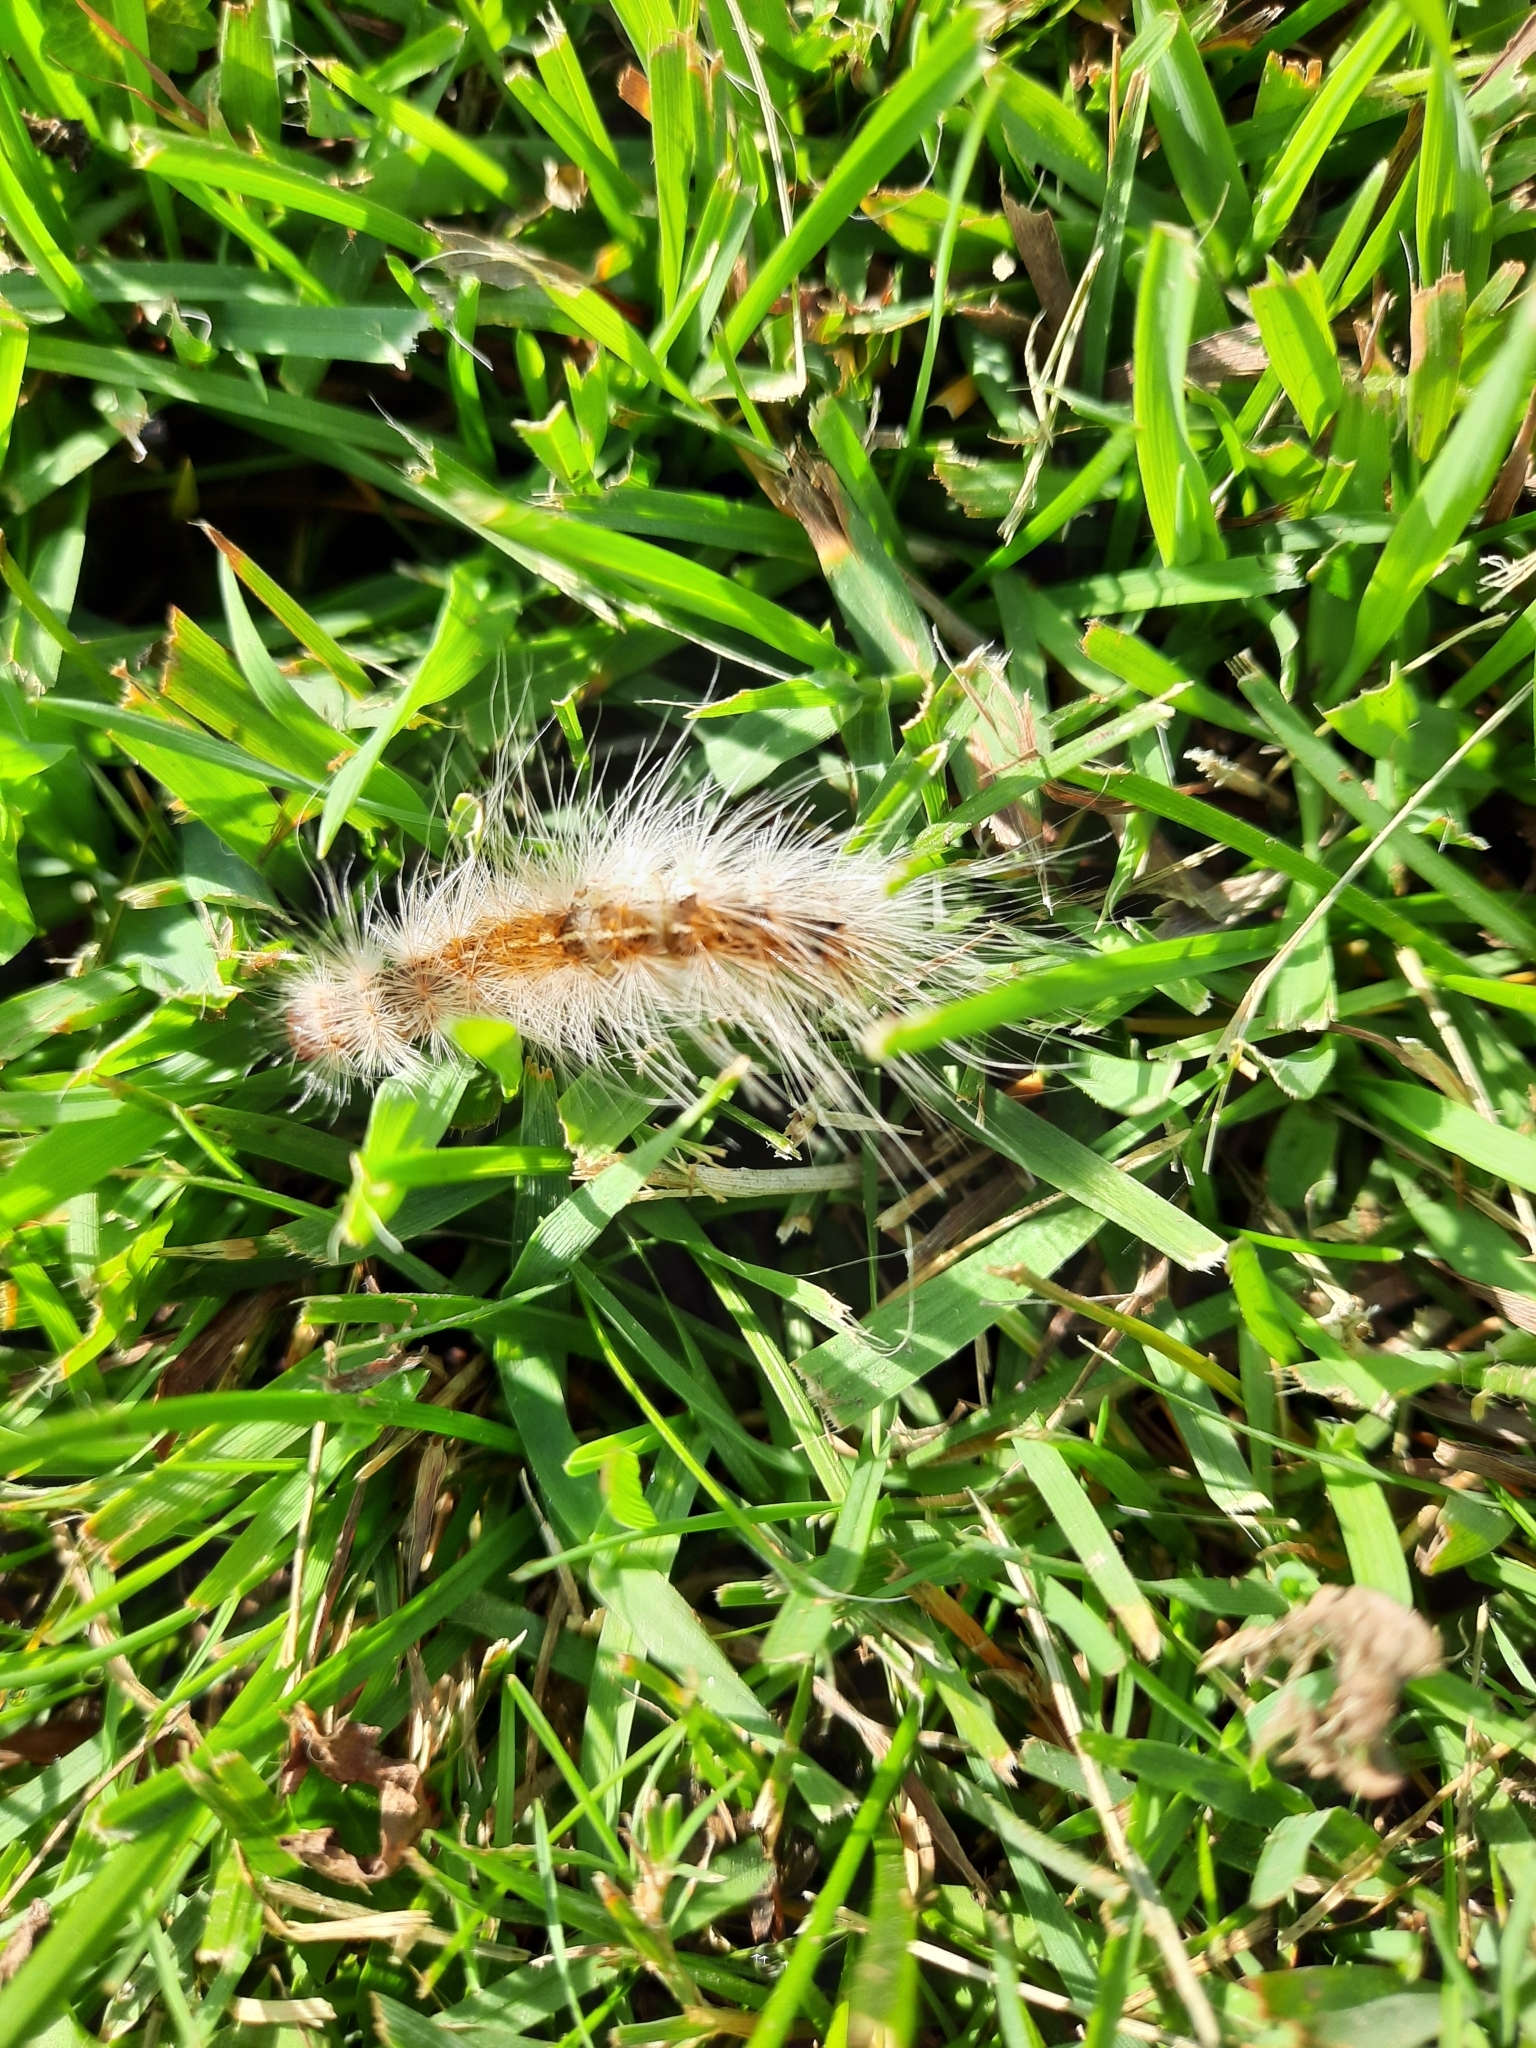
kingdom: Animalia
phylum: Arthropoda
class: Insecta
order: Lepidoptera
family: Erebidae
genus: Hyphantria
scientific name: Hyphantria cunea
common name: American white moth
